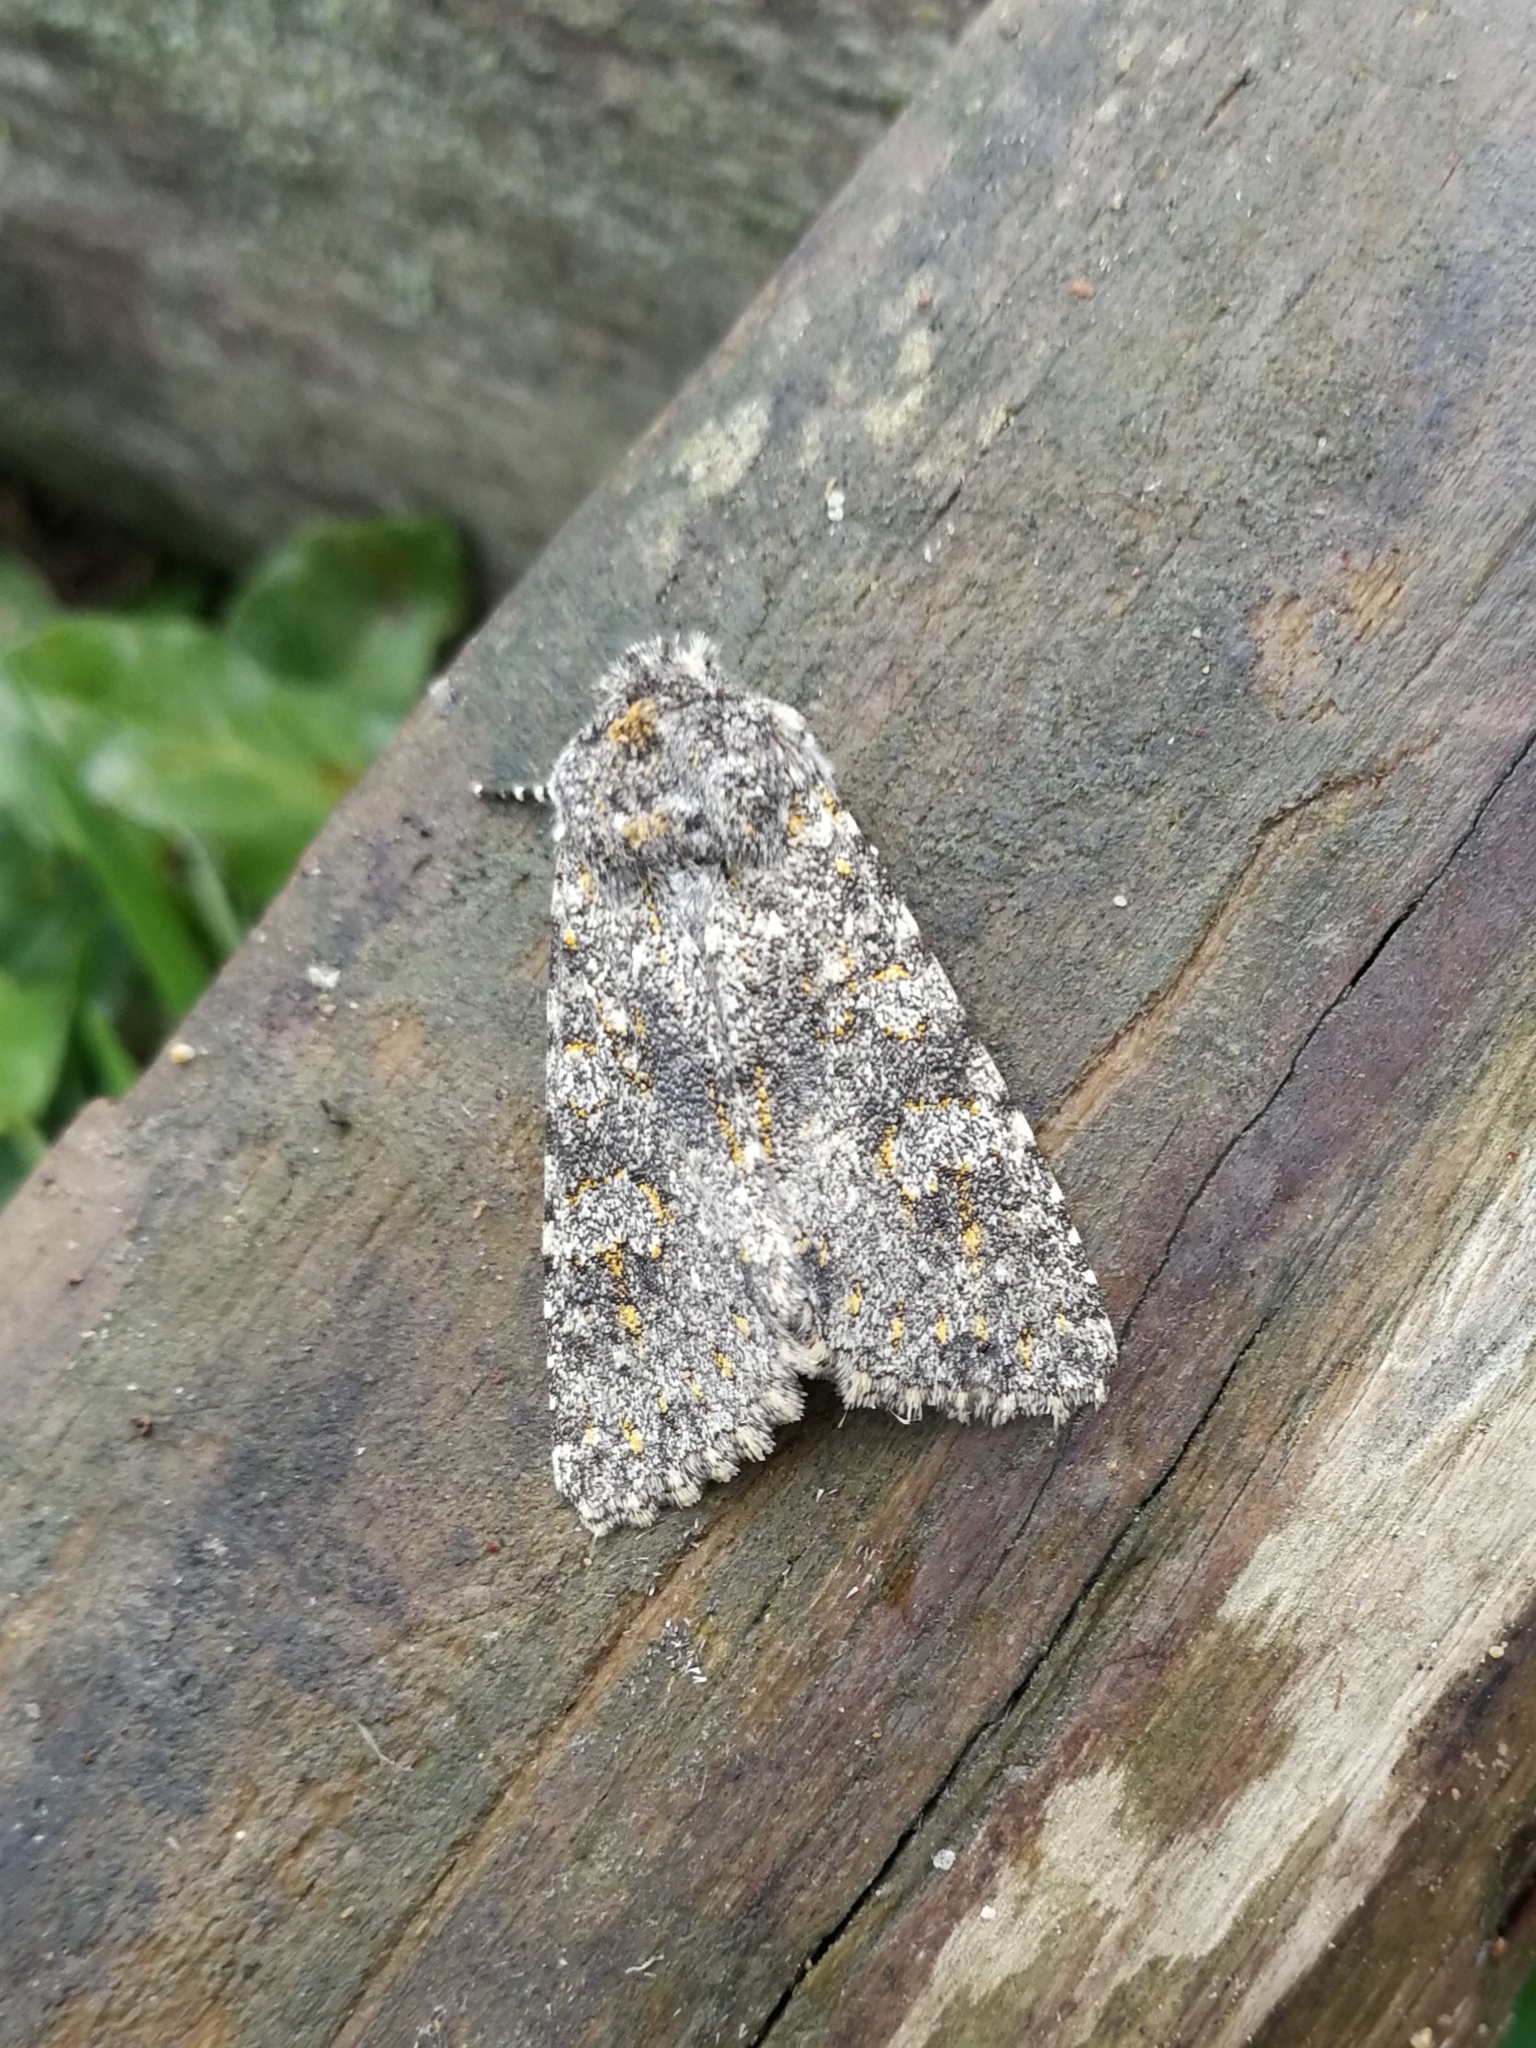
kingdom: Animalia
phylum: Arthropoda
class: Insecta
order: Lepidoptera
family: Noctuidae
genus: Polymixis
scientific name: Polymixis flavicincta
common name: Large ranunculus
